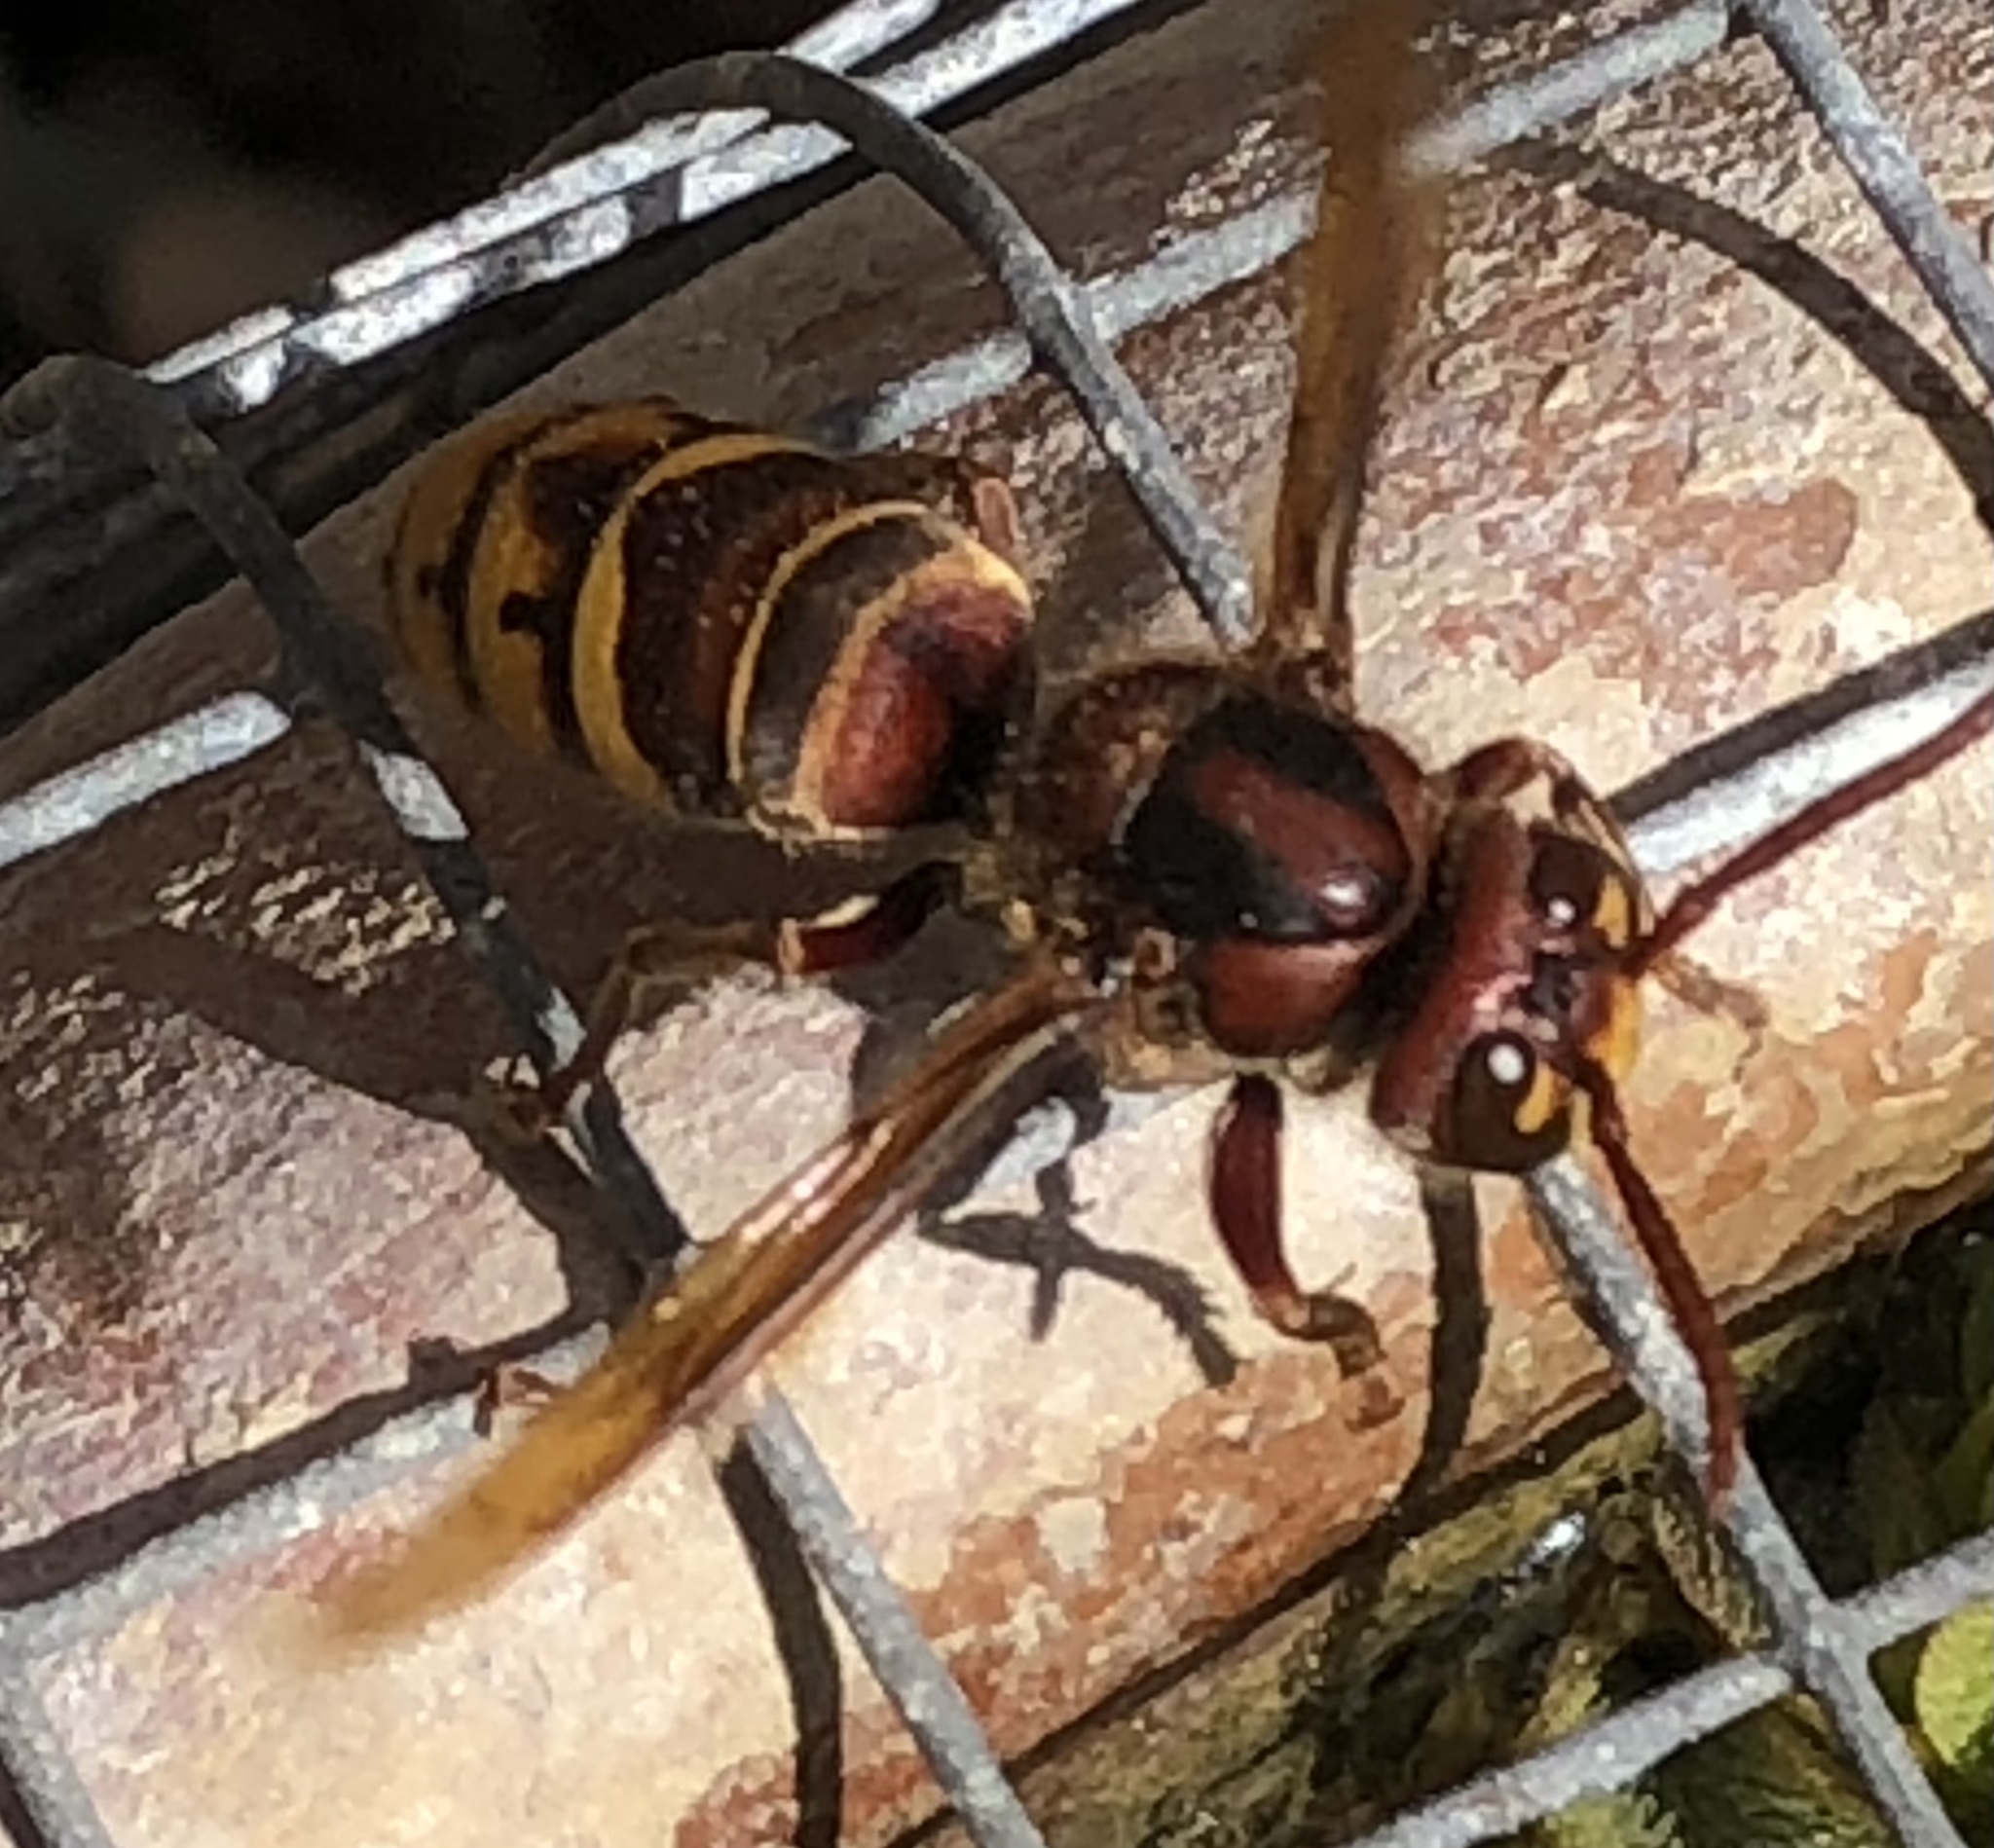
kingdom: Animalia
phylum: Arthropoda
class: Insecta
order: Hymenoptera
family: Vespidae
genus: Vespa
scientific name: Vespa crabro
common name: Hornet
